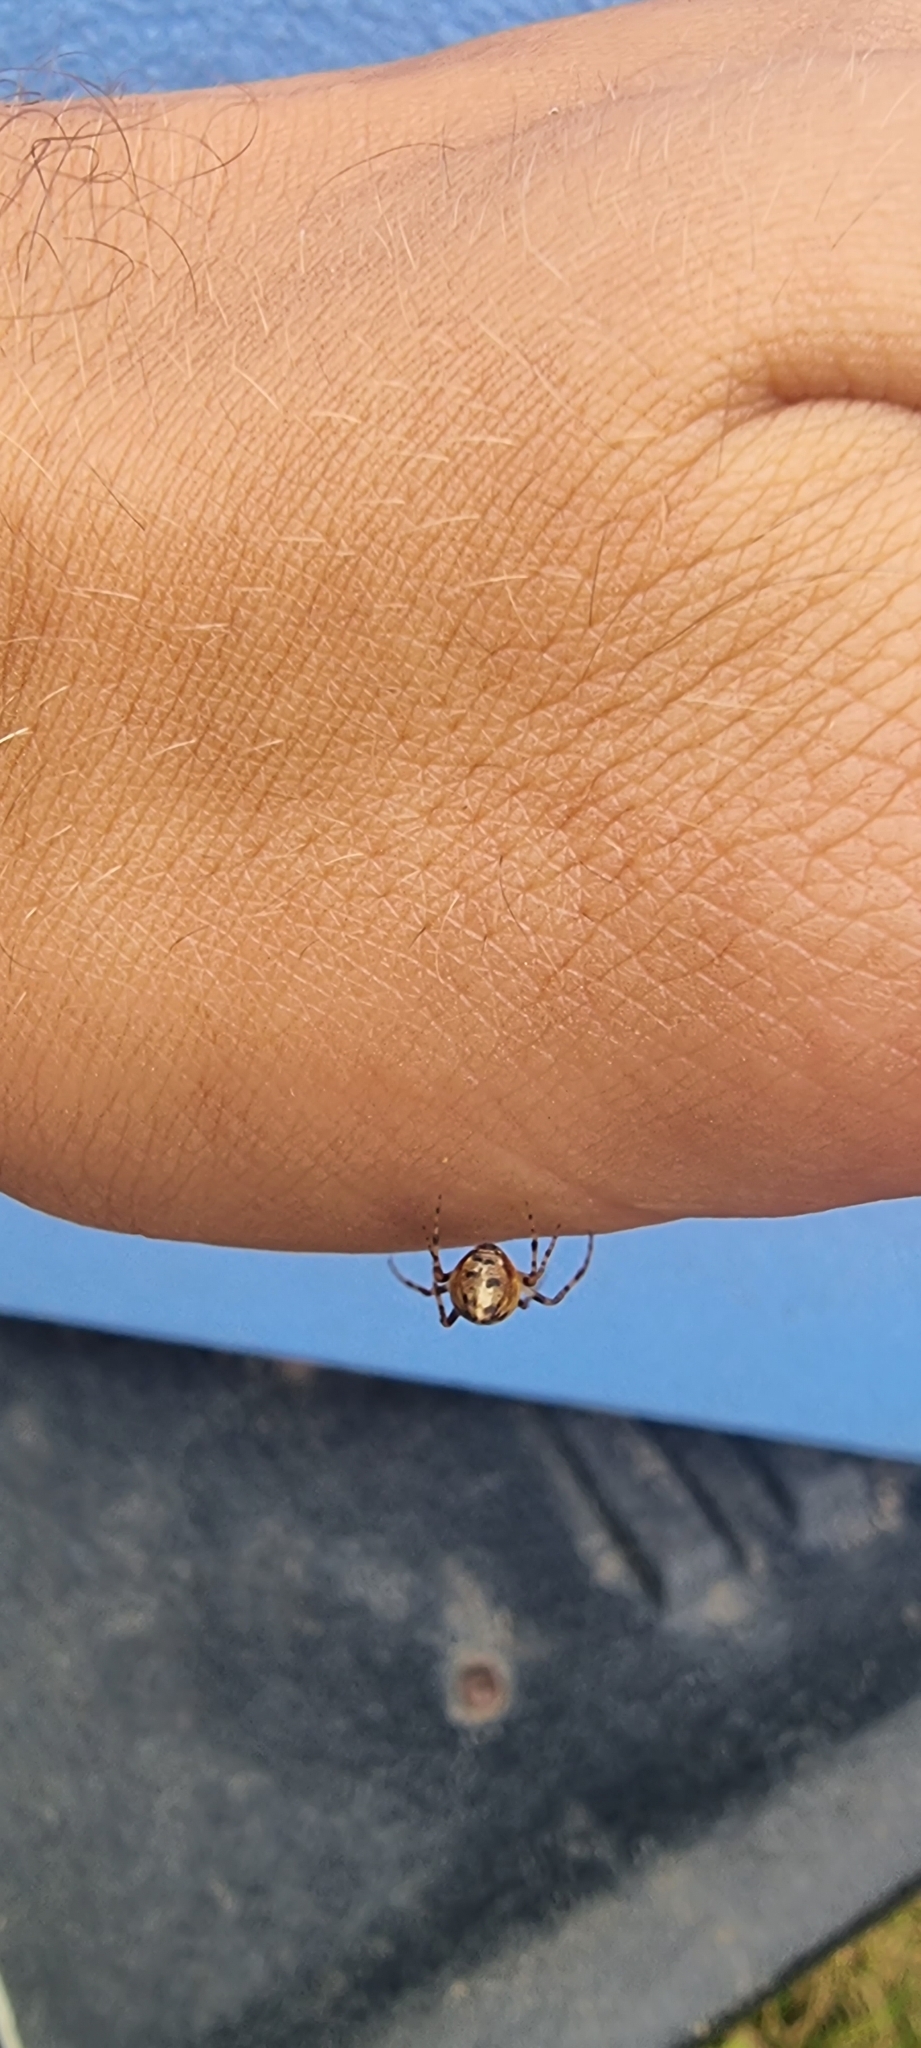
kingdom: Animalia
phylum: Arthropoda
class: Arachnida
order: Araneae
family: Araneidae
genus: Cyclosa
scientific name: Cyclosa conica
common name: Conical trashline orbweaver
